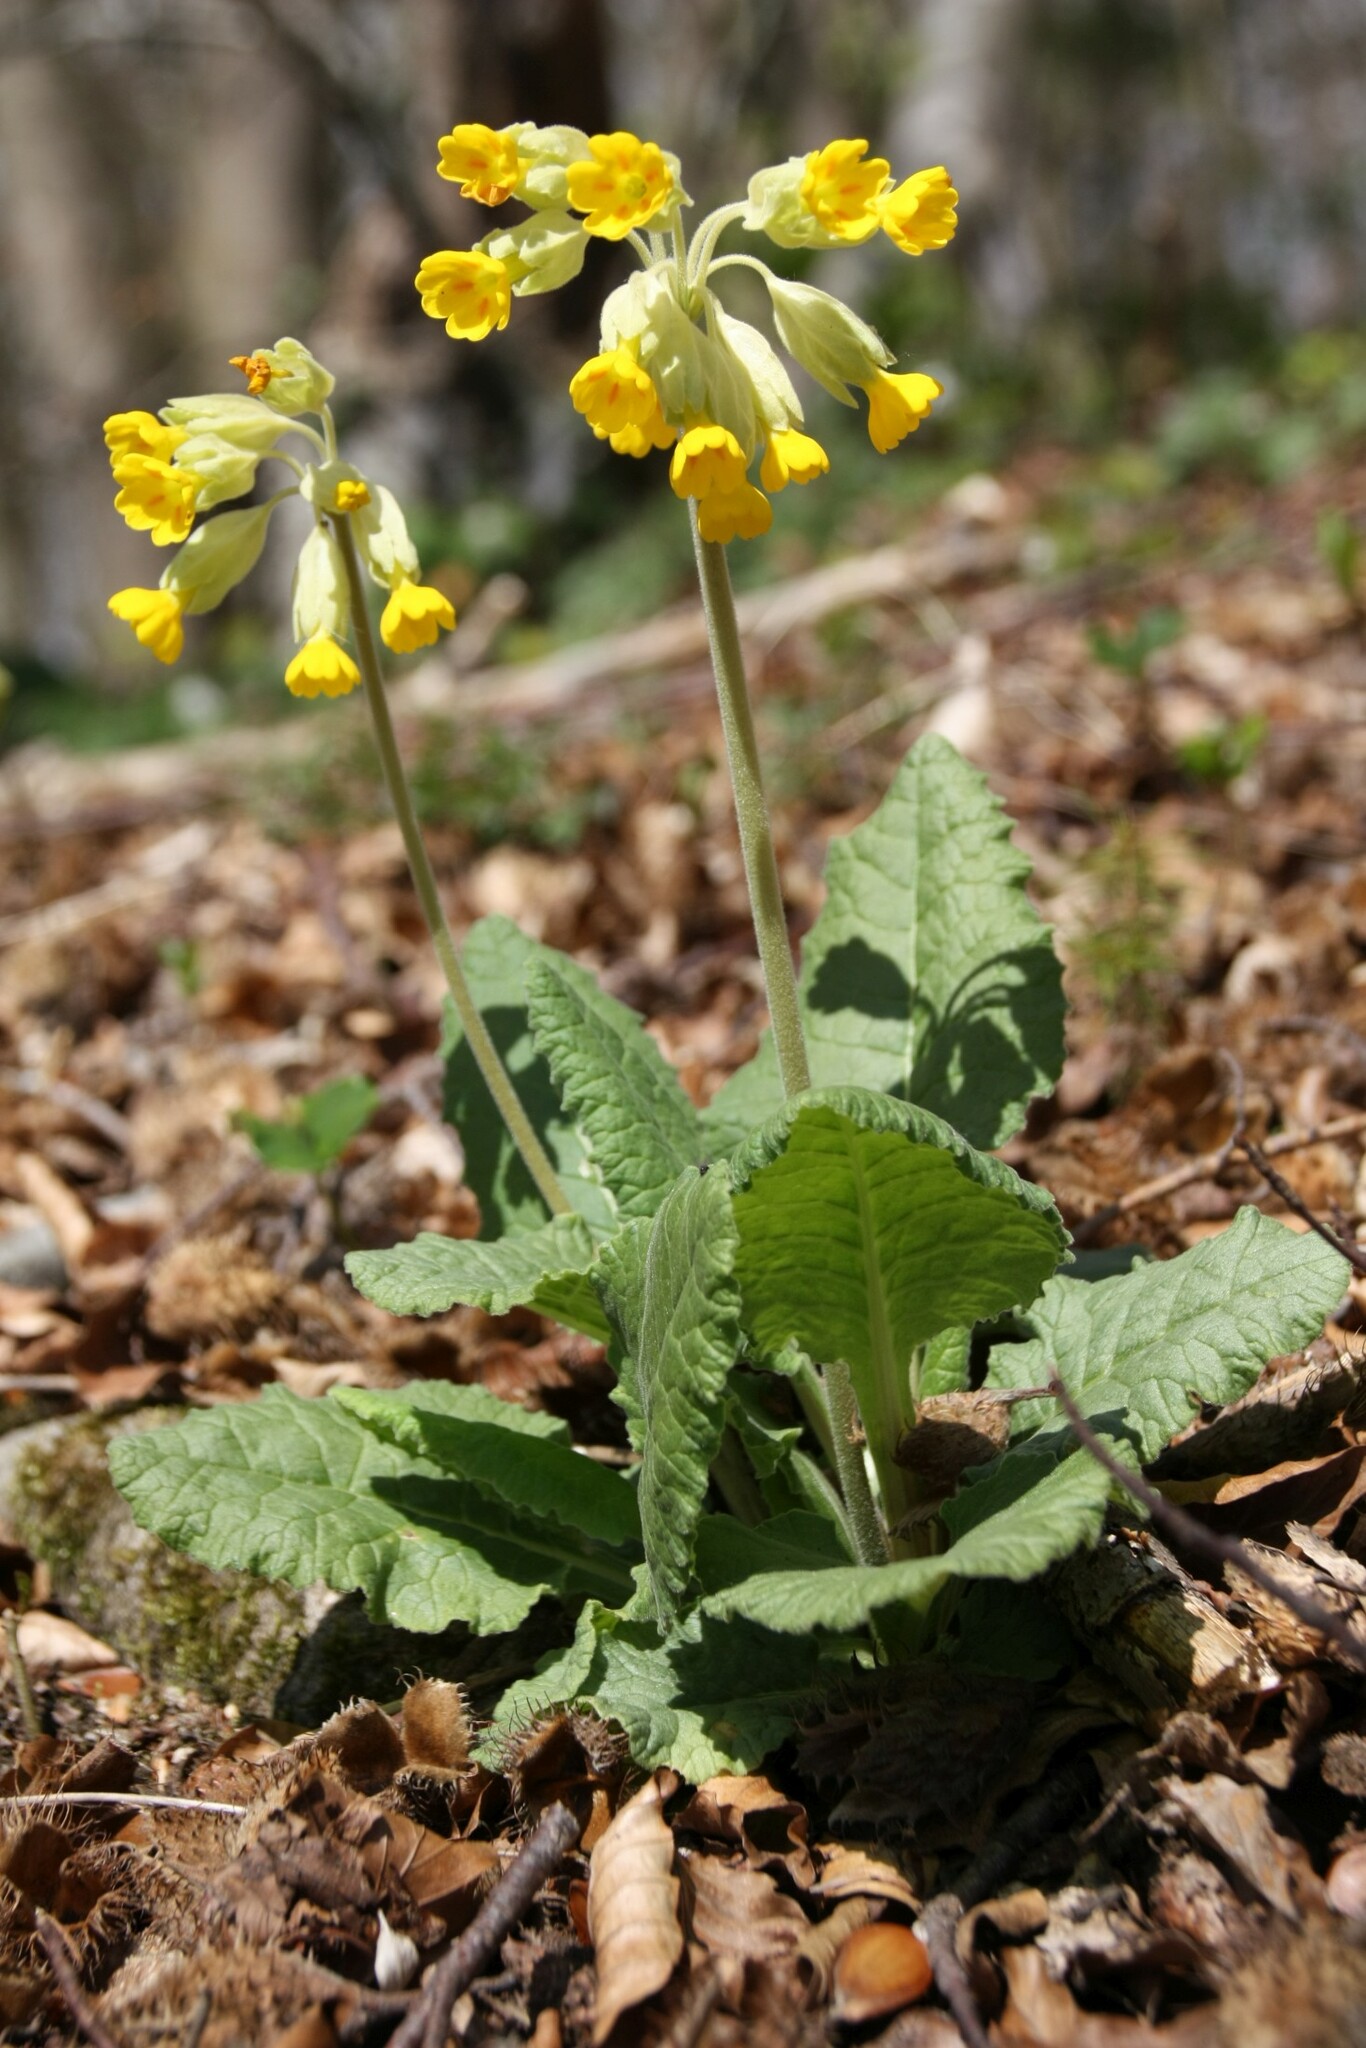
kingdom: Plantae
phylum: Tracheophyta
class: Magnoliopsida
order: Ericales
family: Primulaceae
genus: Primula
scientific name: Primula veris
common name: Cowslip
